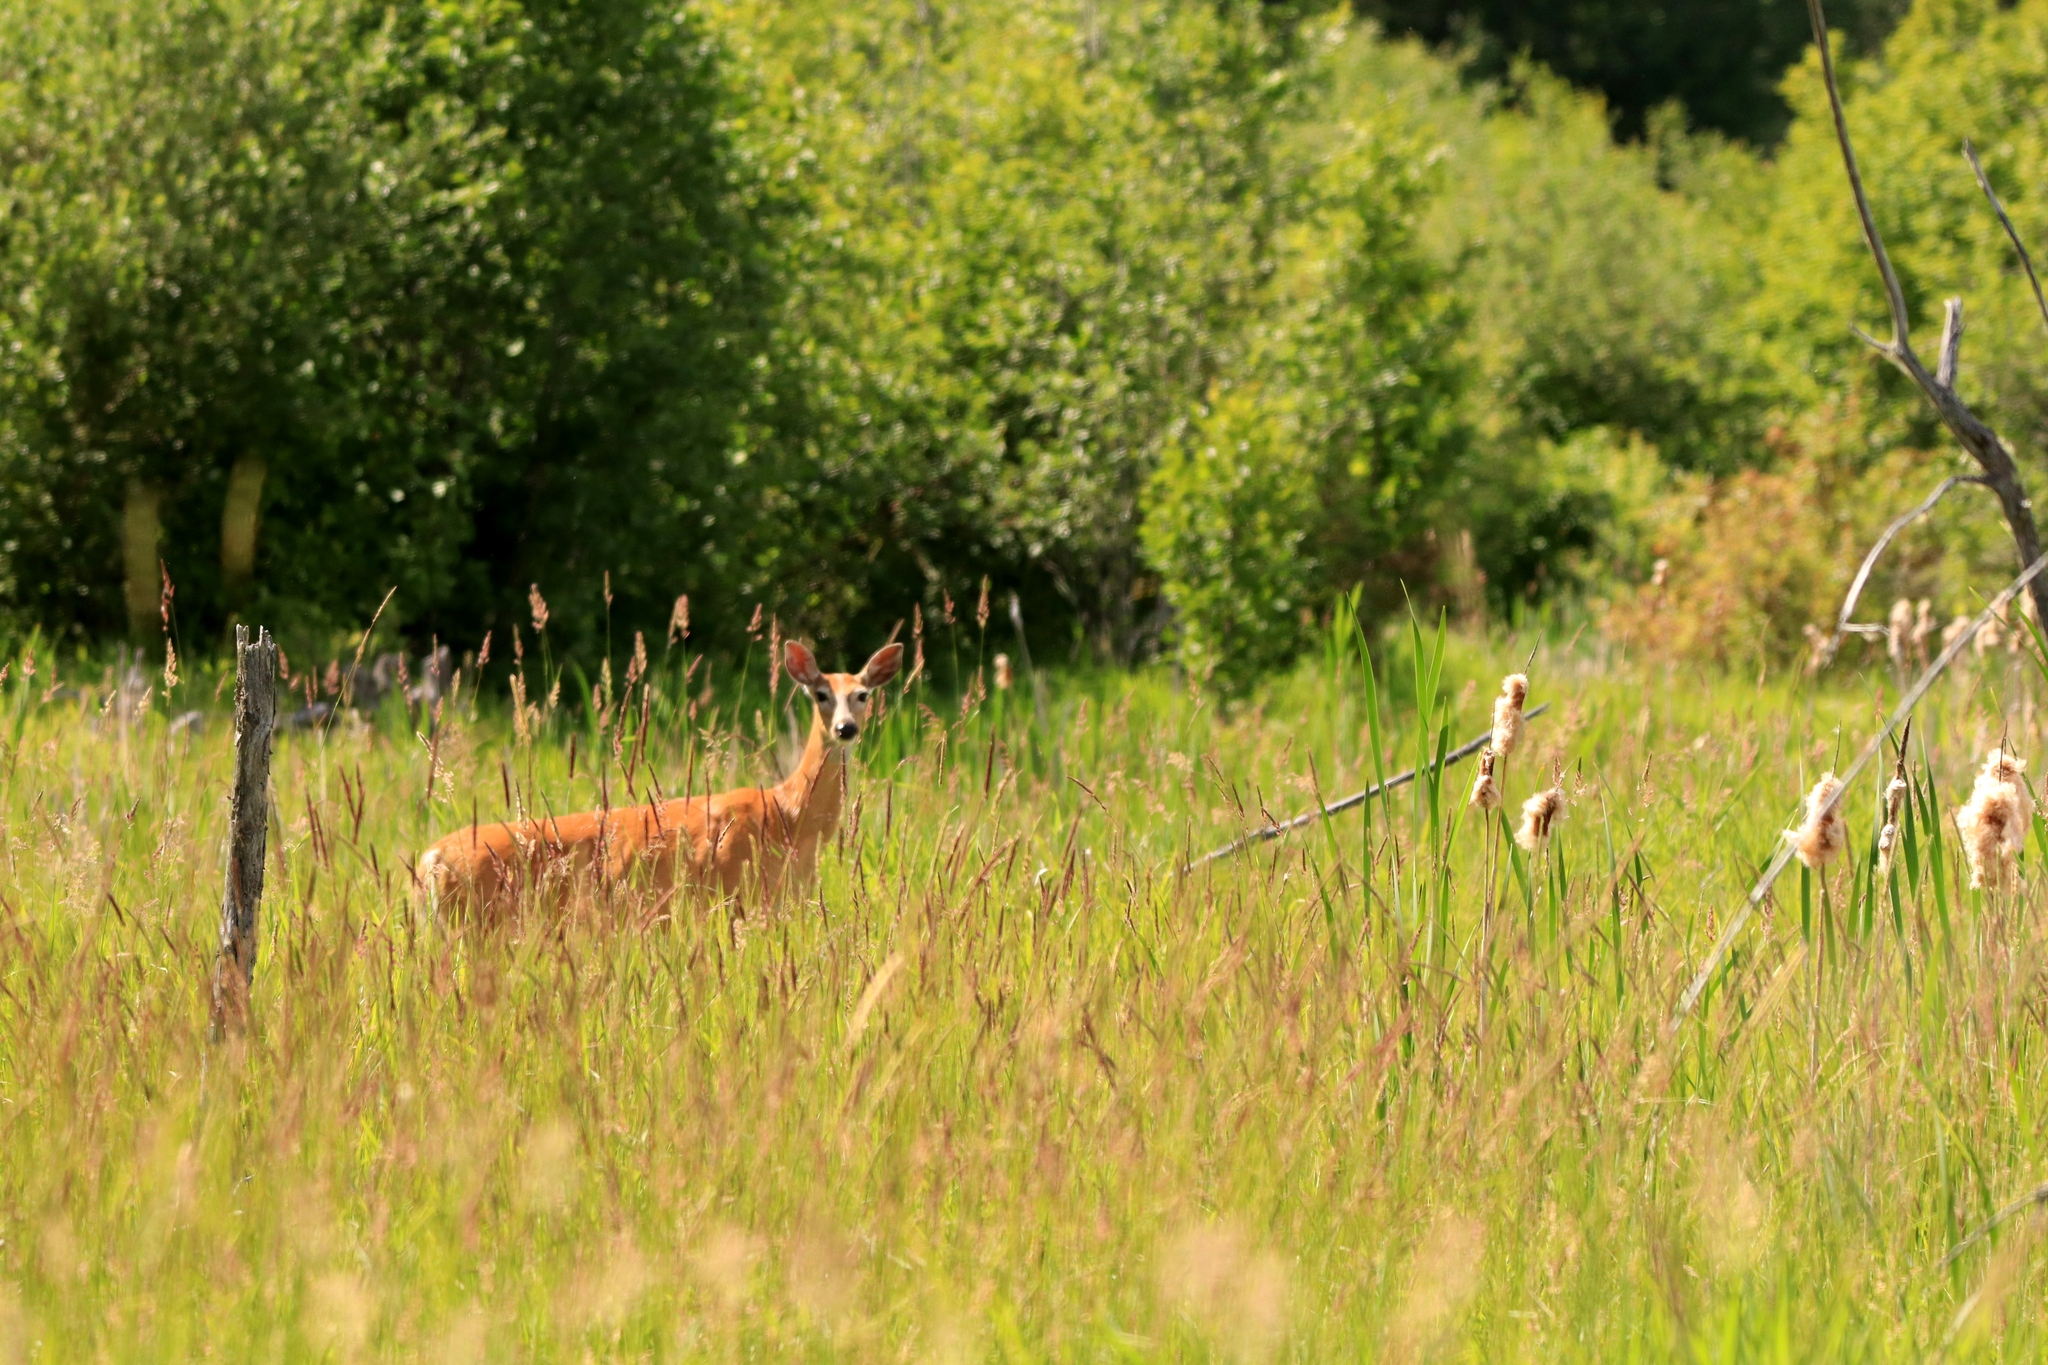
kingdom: Animalia
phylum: Chordata
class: Mammalia
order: Artiodactyla
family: Cervidae
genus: Odocoileus
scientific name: Odocoileus virginianus
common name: White-tailed deer
